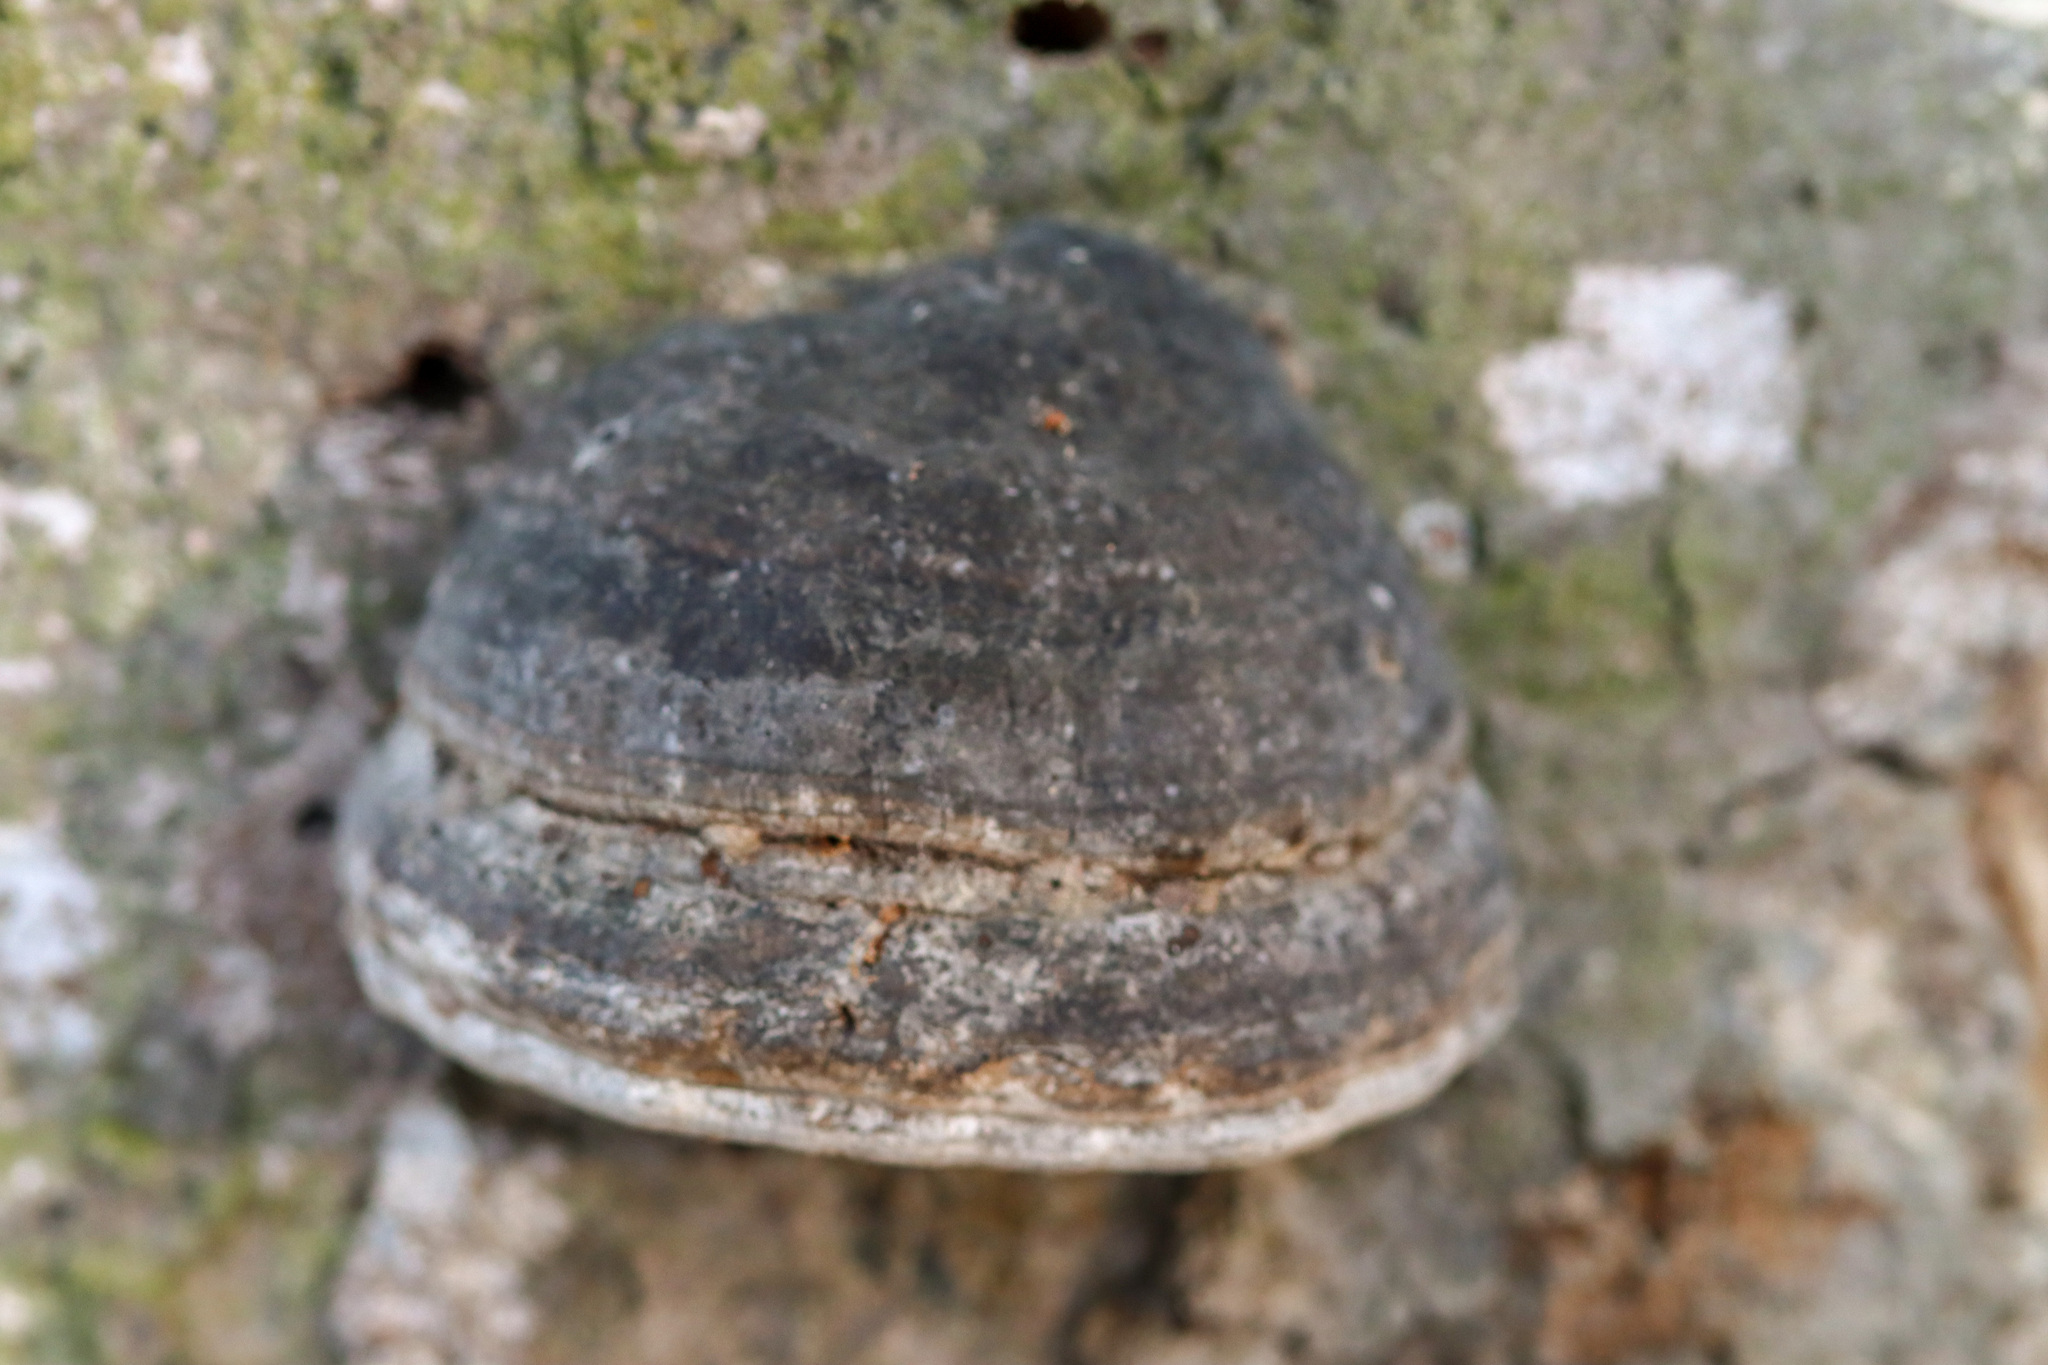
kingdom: Fungi
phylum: Basidiomycota
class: Agaricomycetes
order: Polyporales
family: Polyporaceae
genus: Fomes
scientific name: Fomes fomentarius
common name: Hoof fungus
